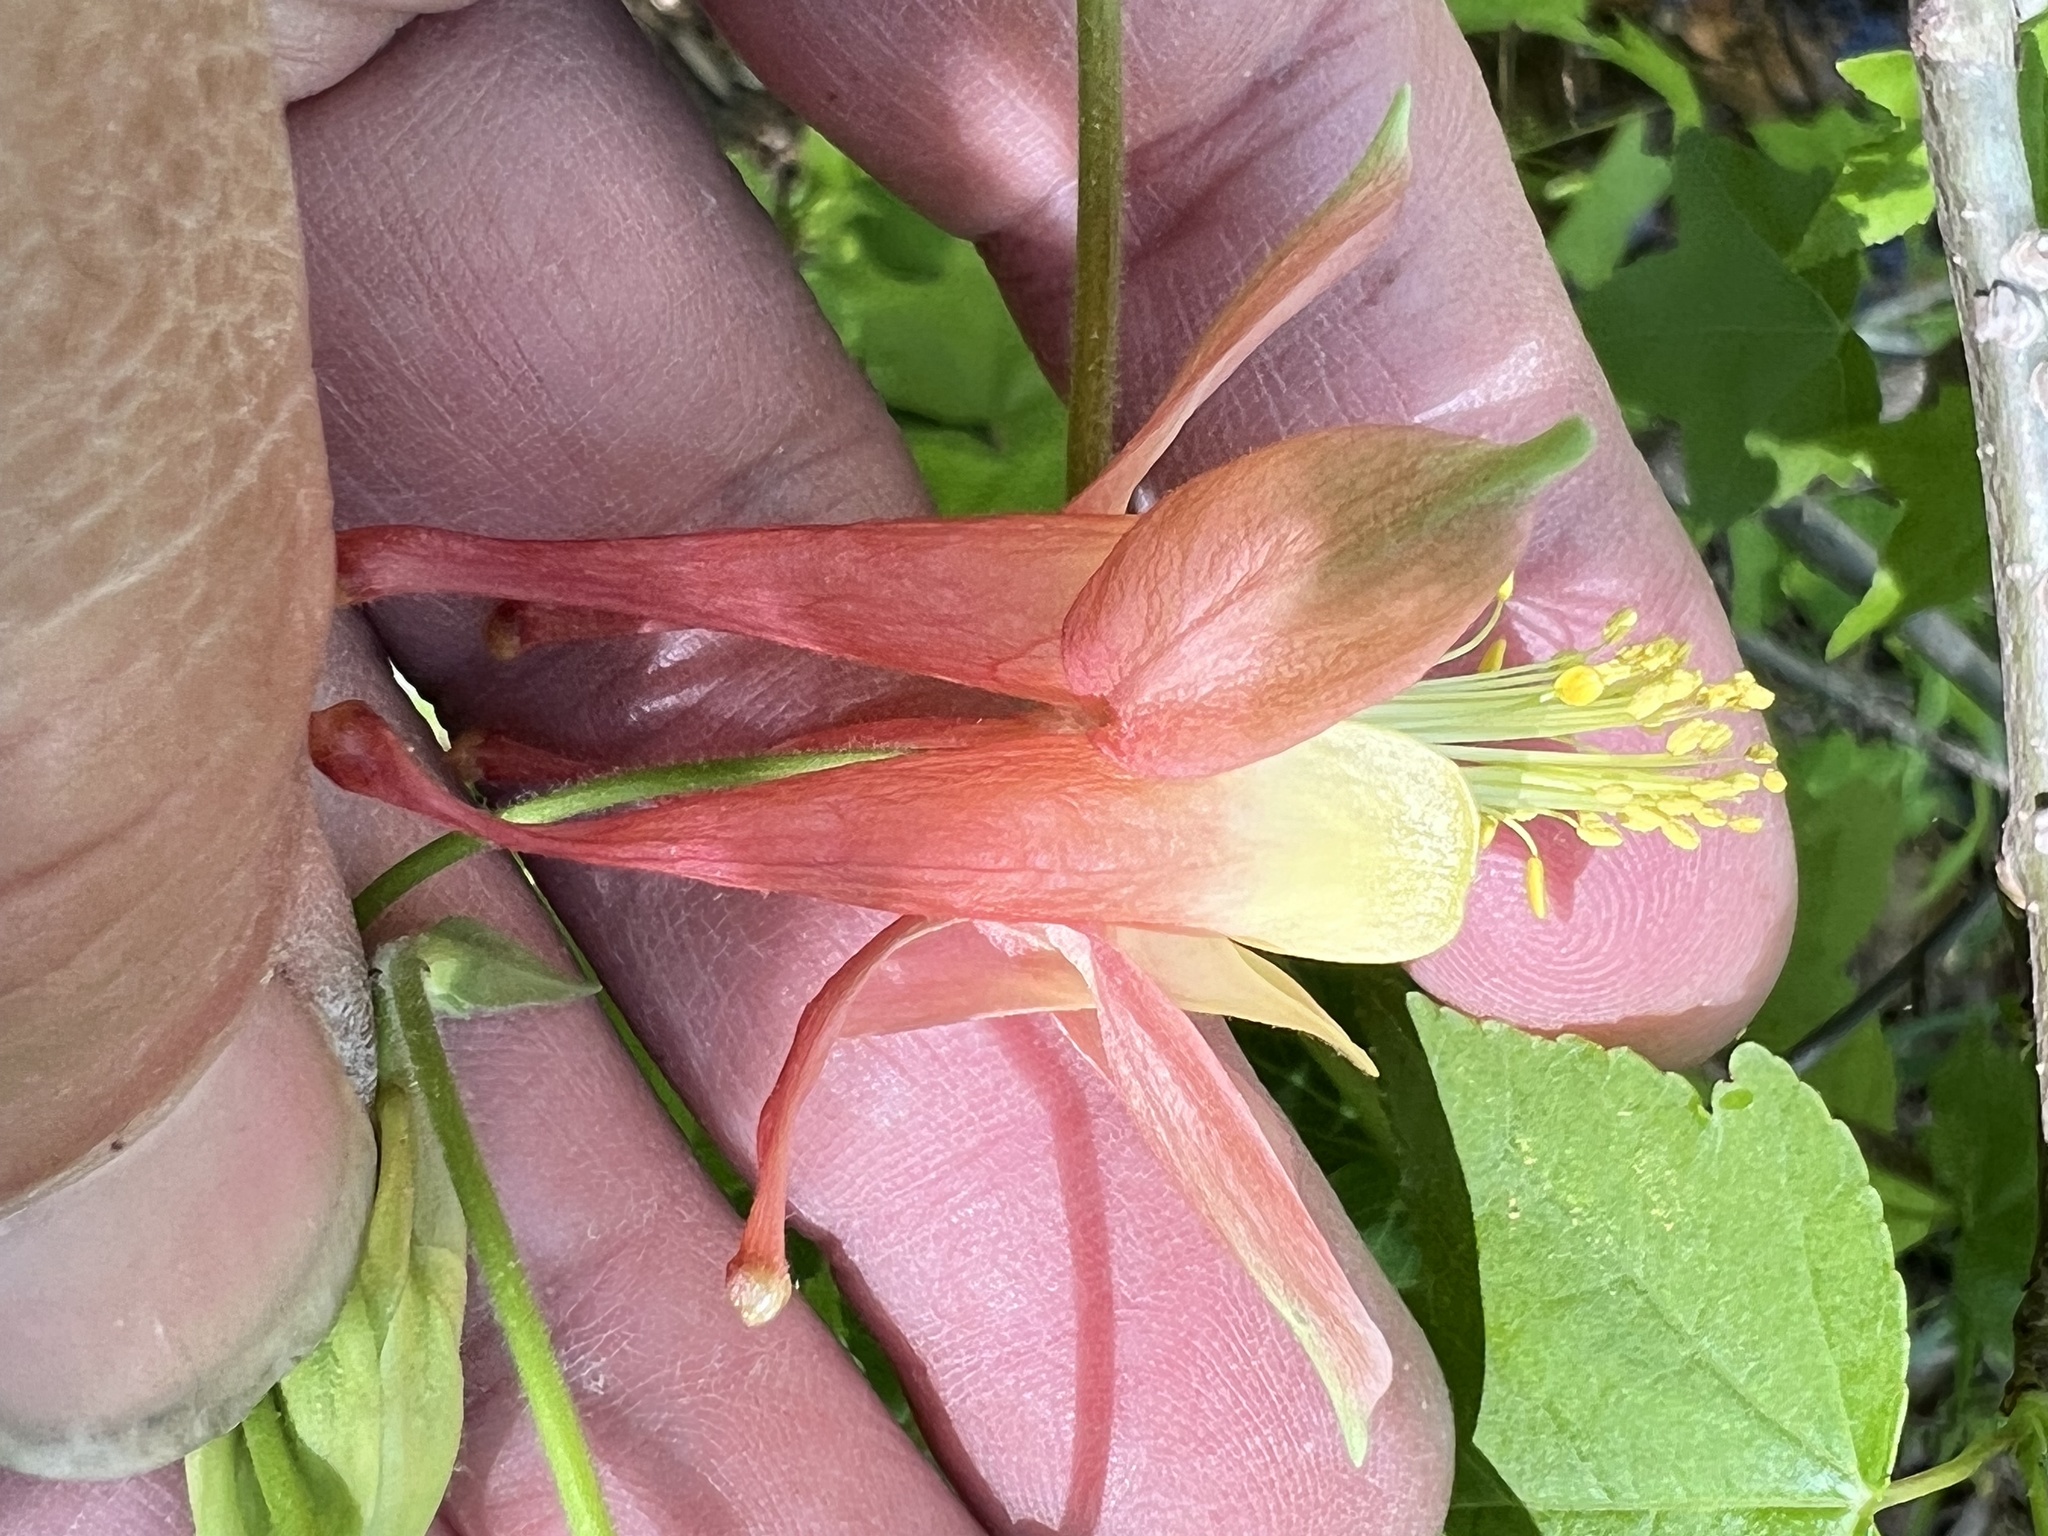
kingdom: Plantae
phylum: Tracheophyta
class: Magnoliopsida
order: Ranunculales
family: Ranunculaceae
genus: Aquilegia
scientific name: Aquilegia canadensis
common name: American columbine
